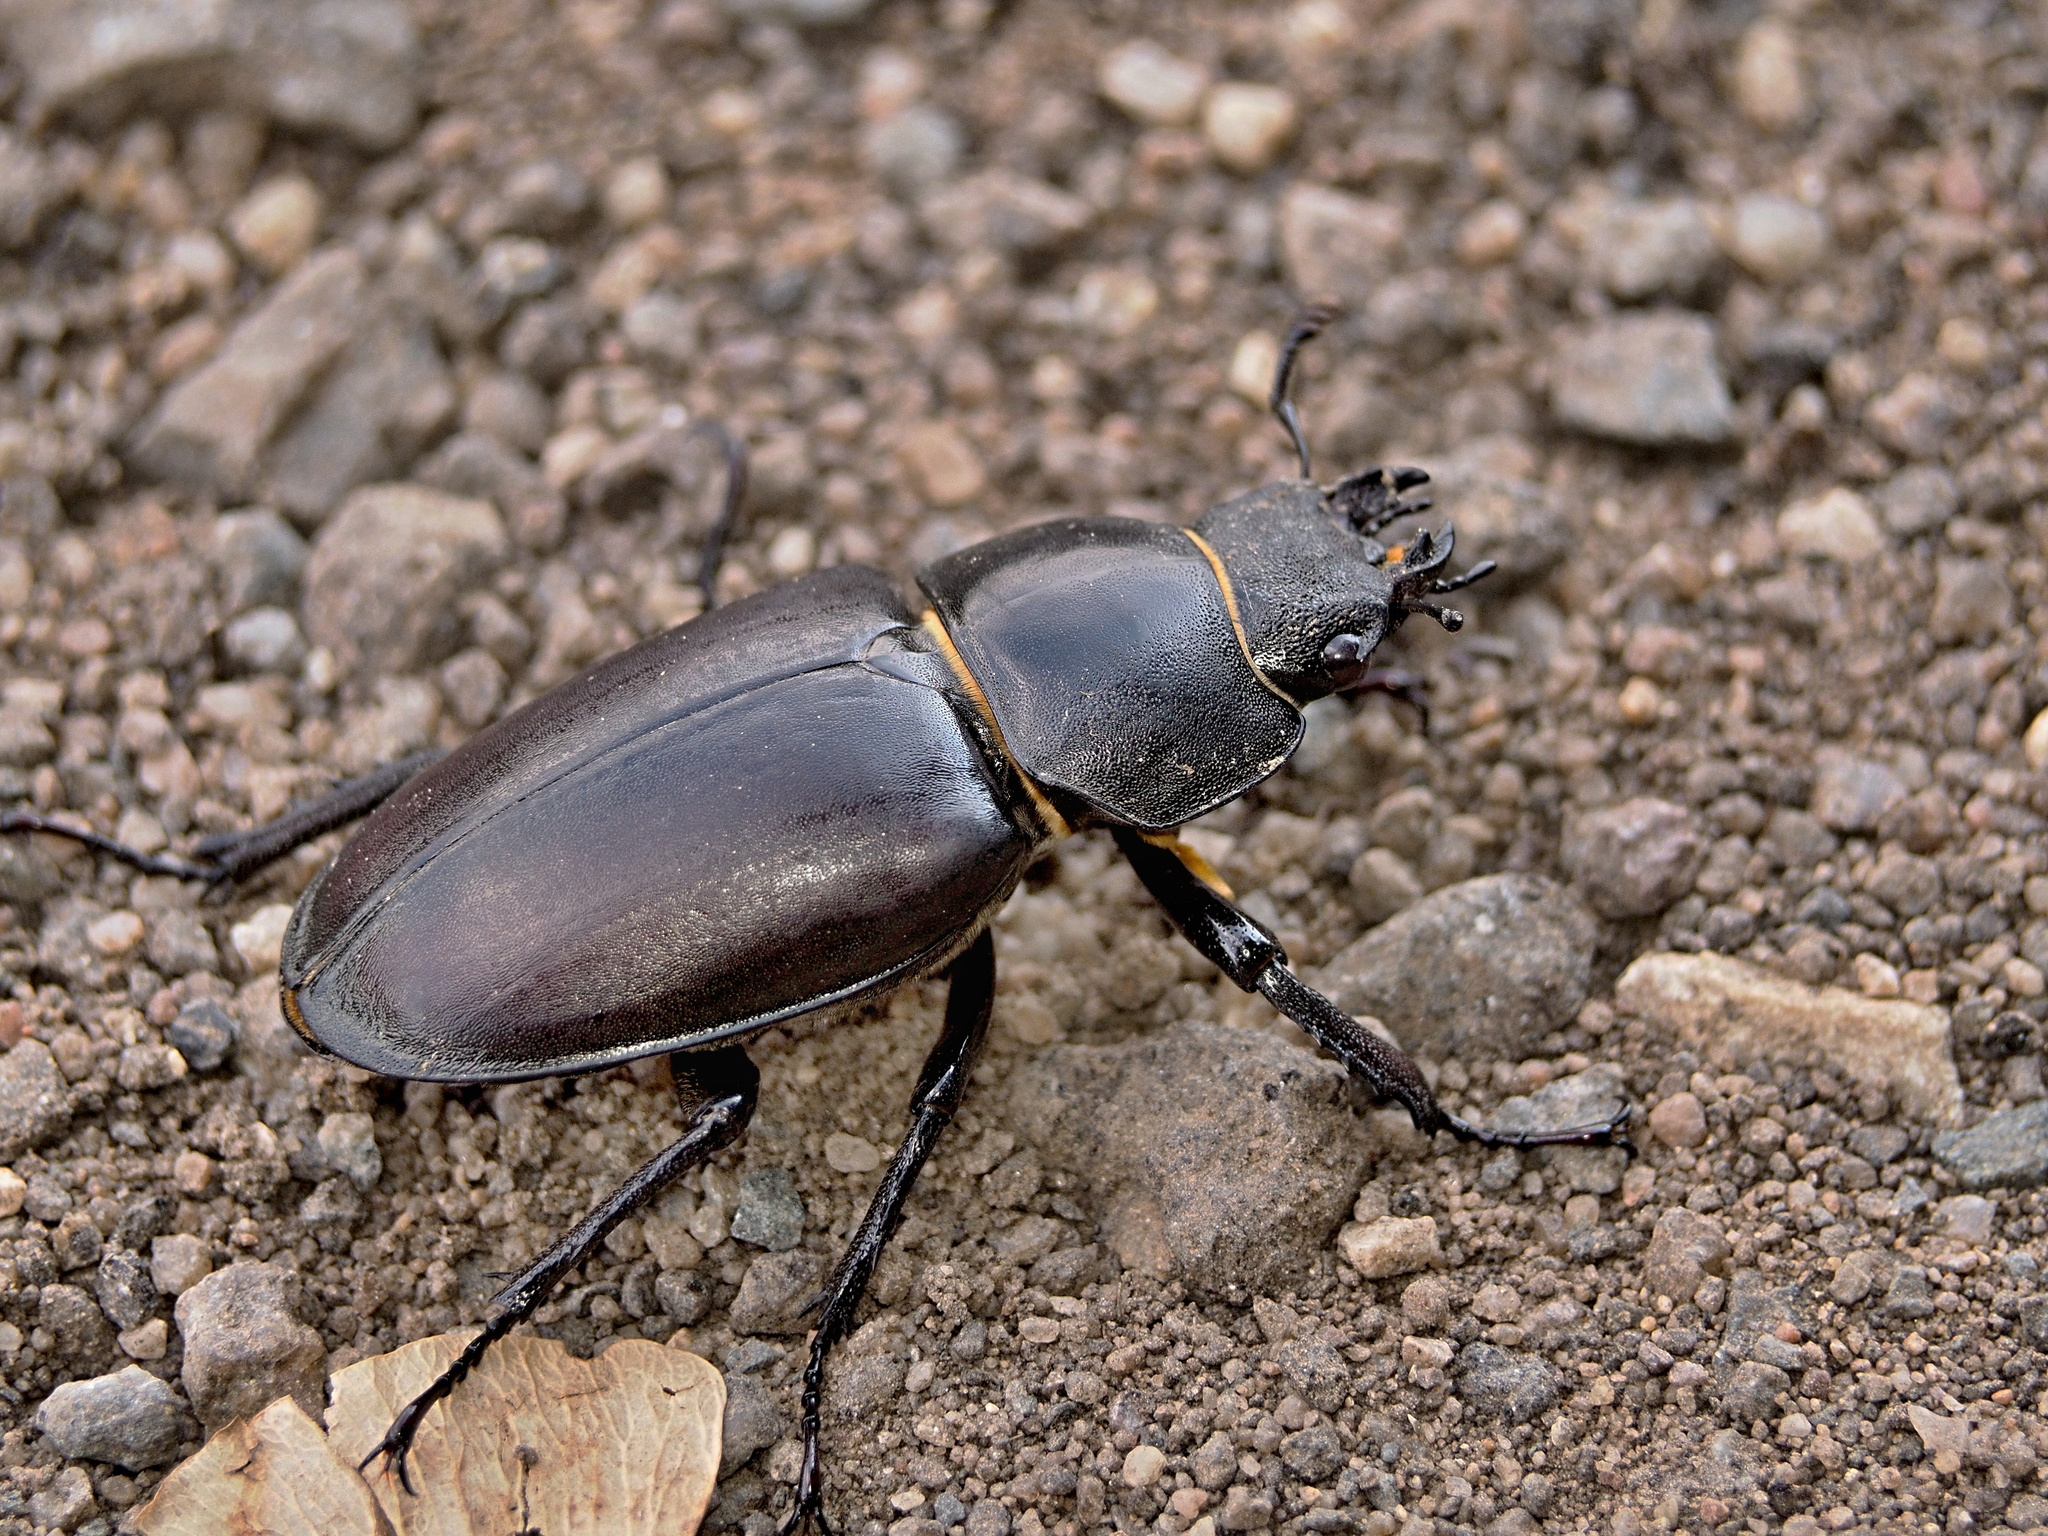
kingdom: Animalia
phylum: Arthropoda
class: Insecta
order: Coleoptera
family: Lucanidae
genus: Lucanus
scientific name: Lucanus cervus
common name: Stag beetle
